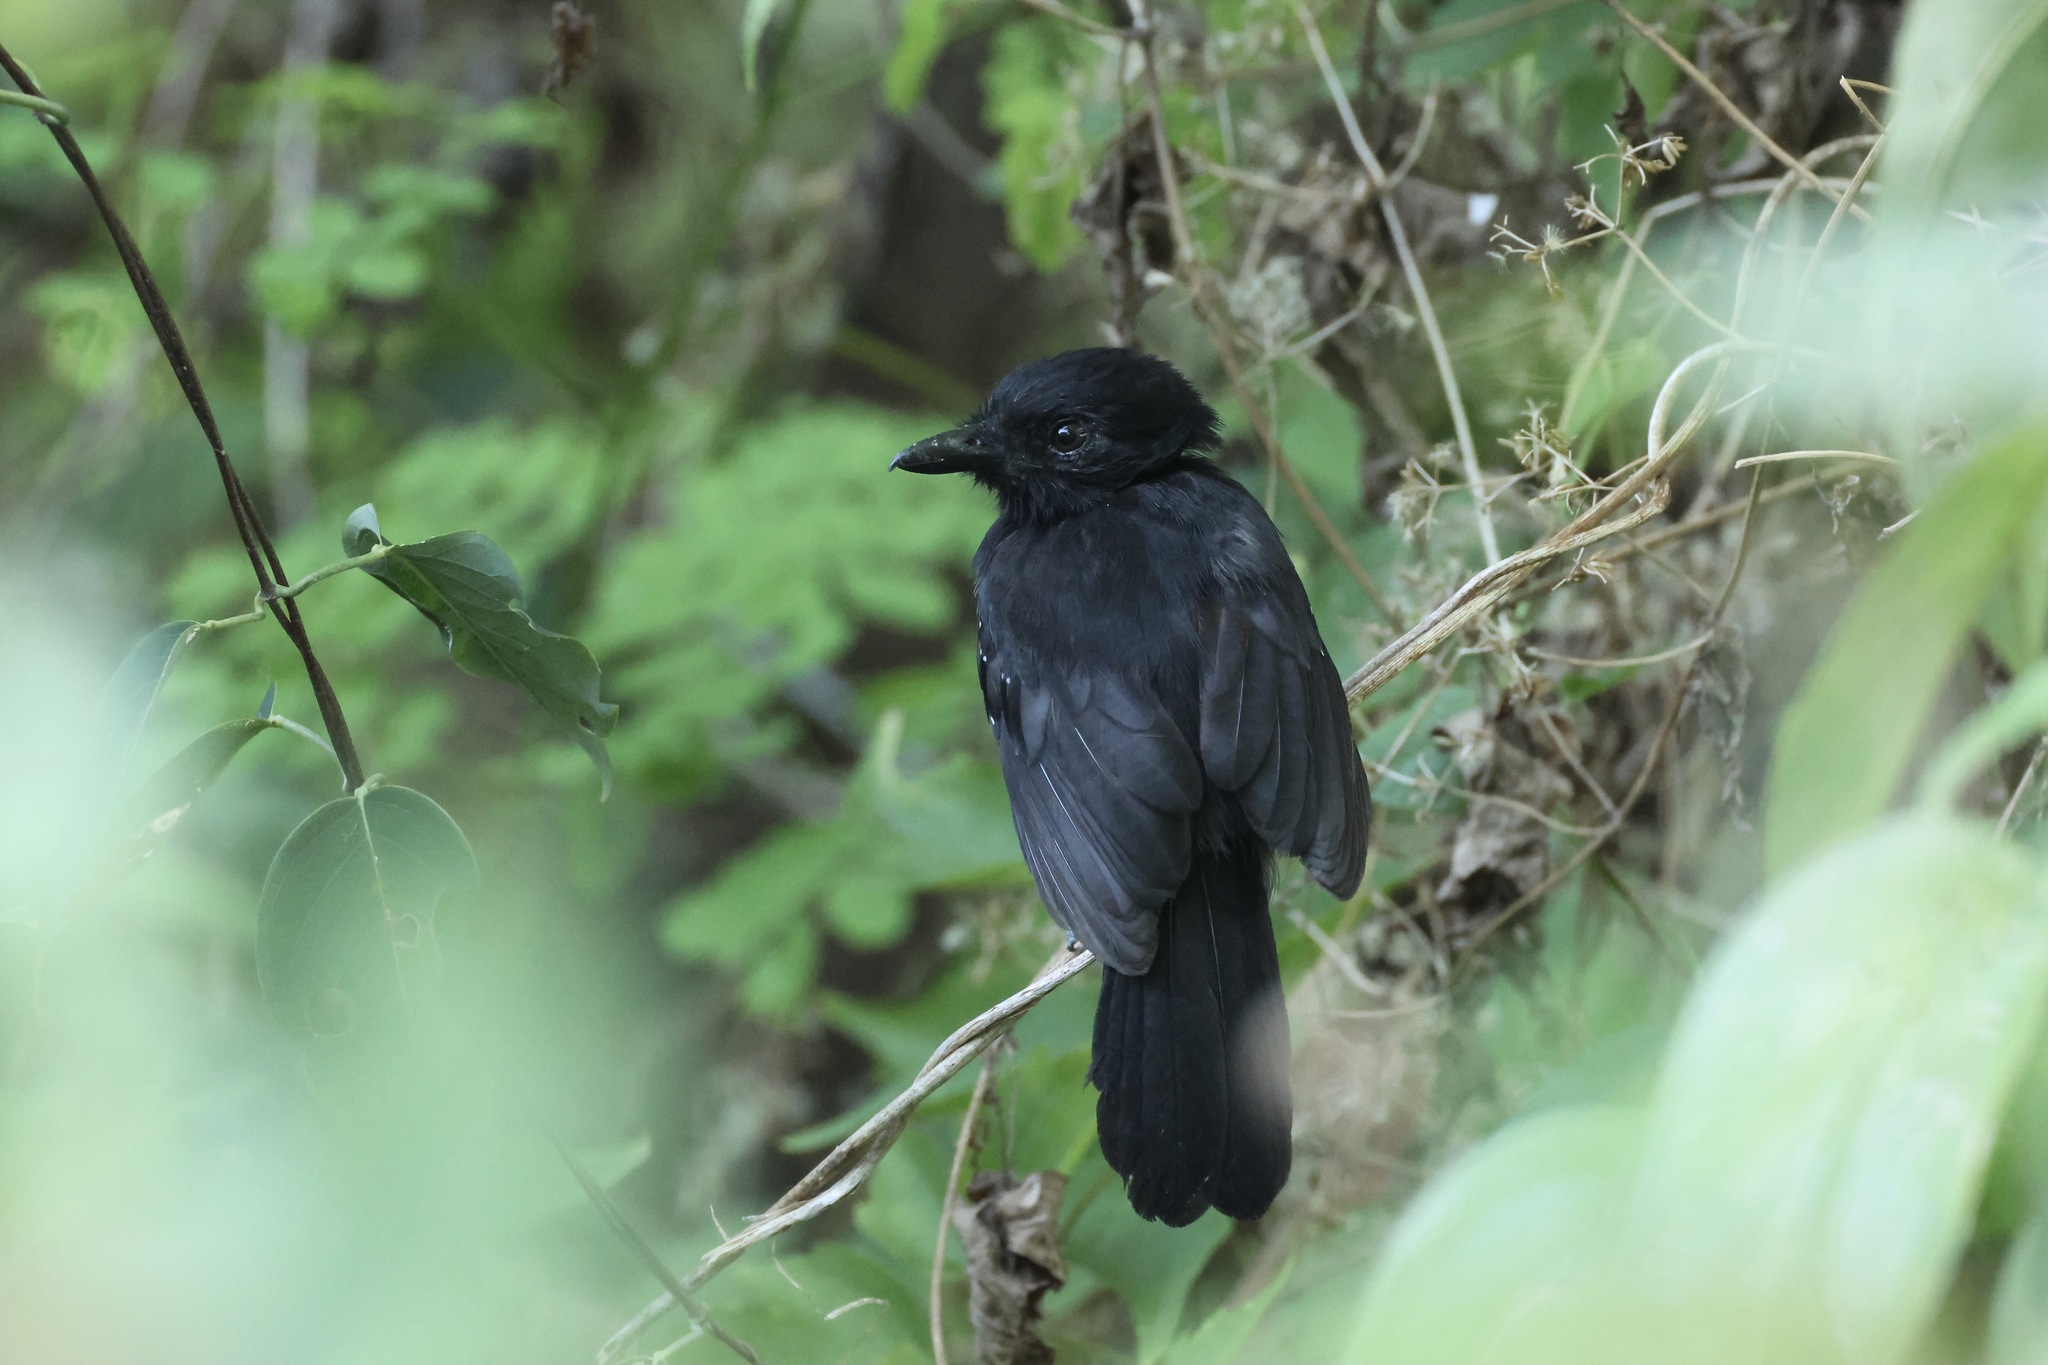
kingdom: Animalia
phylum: Chordata
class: Aves
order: Passeriformes
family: Thamnophilidae
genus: Thamnophilus
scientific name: Thamnophilus bridgesi
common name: Black-hooded antshrike
